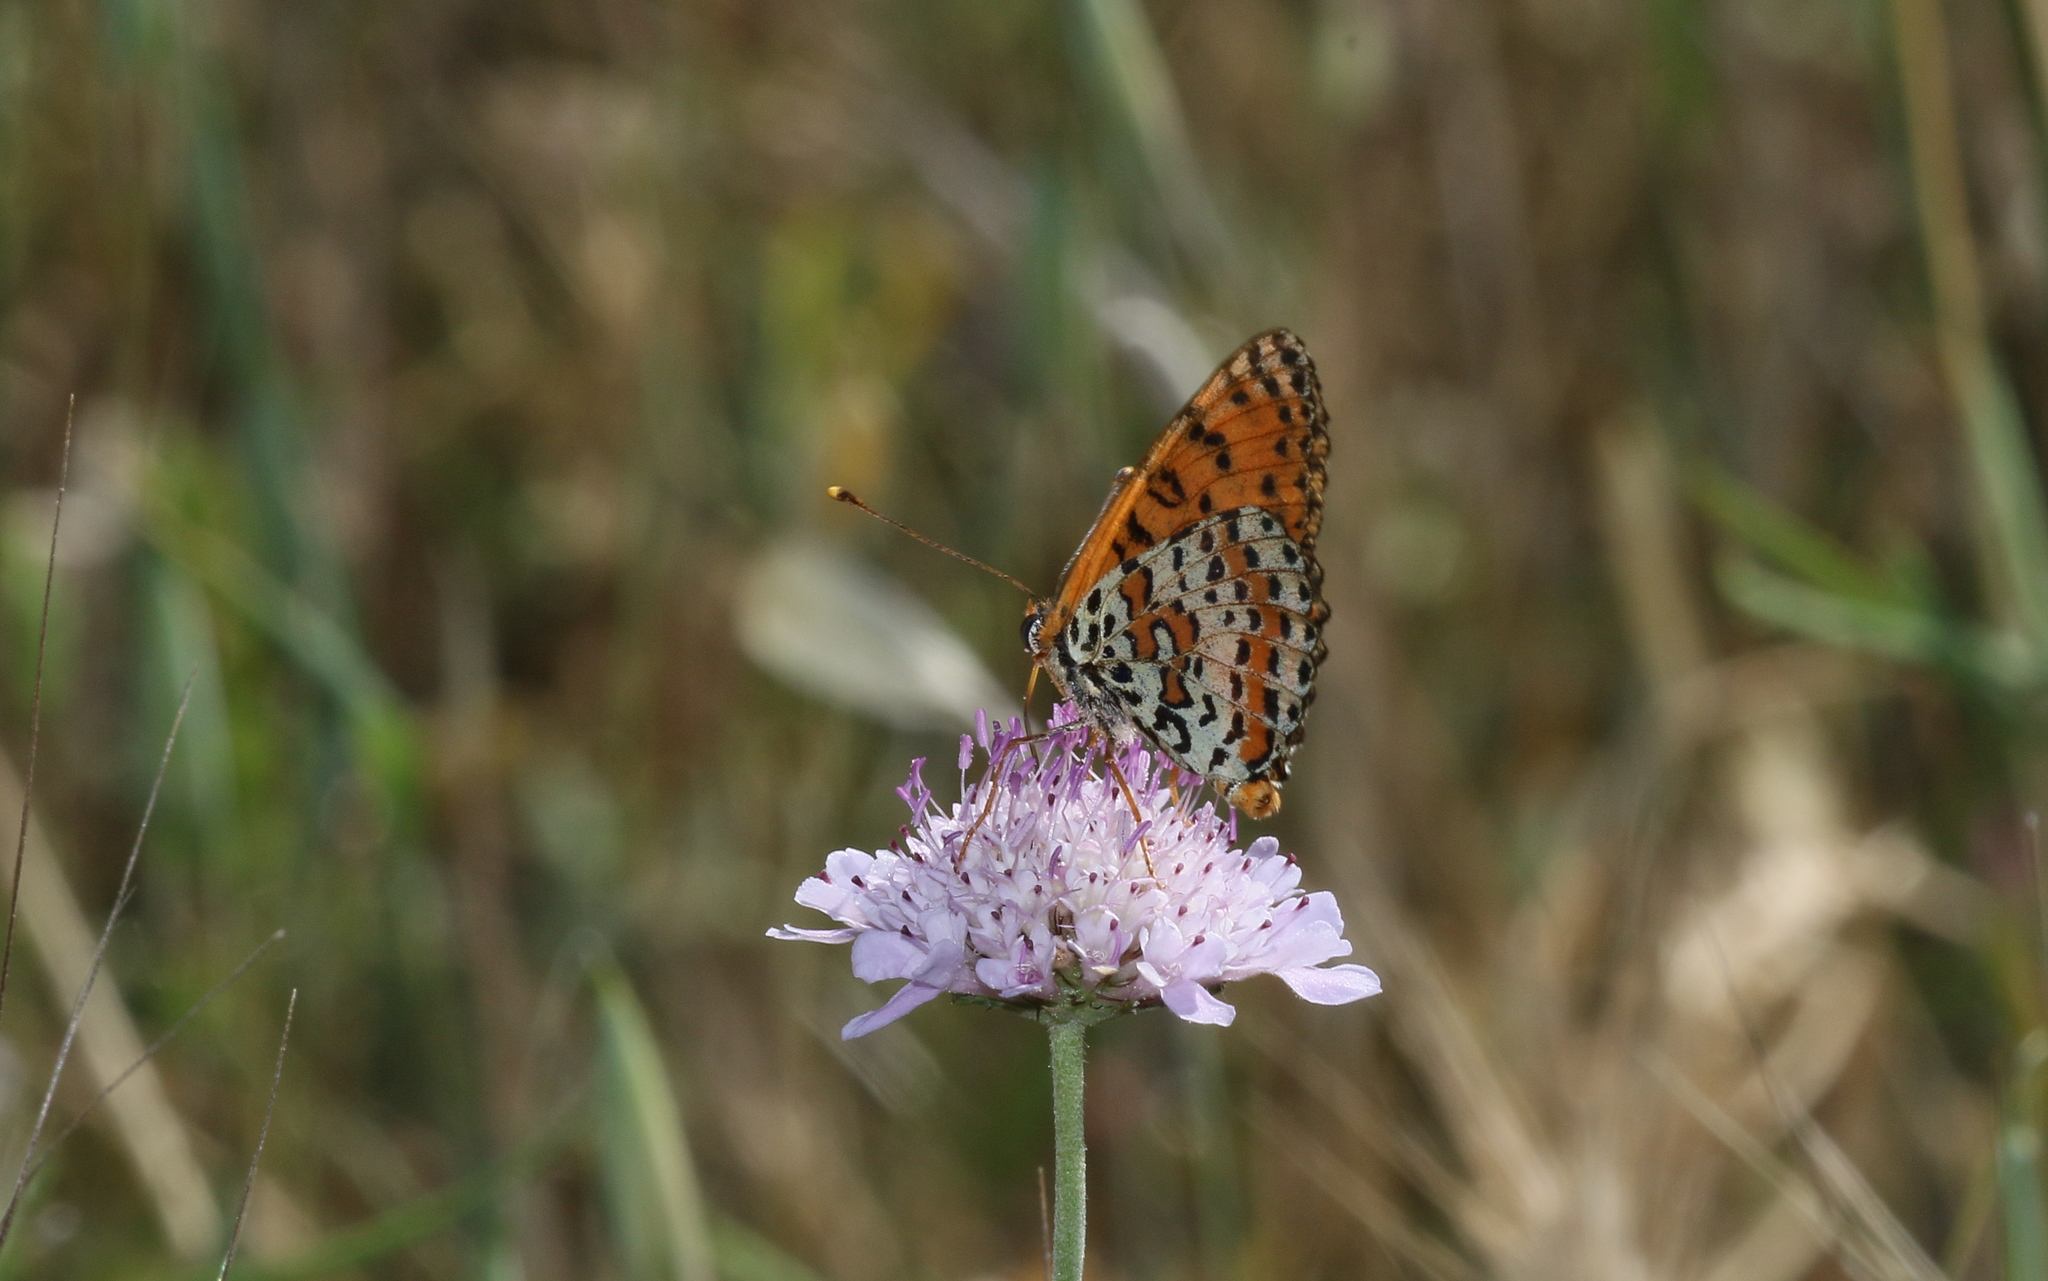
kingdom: Animalia
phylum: Arthropoda
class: Insecta
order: Lepidoptera
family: Nymphalidae
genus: Melitaea
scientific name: Melitaea didyma
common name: Spotted fritillary
